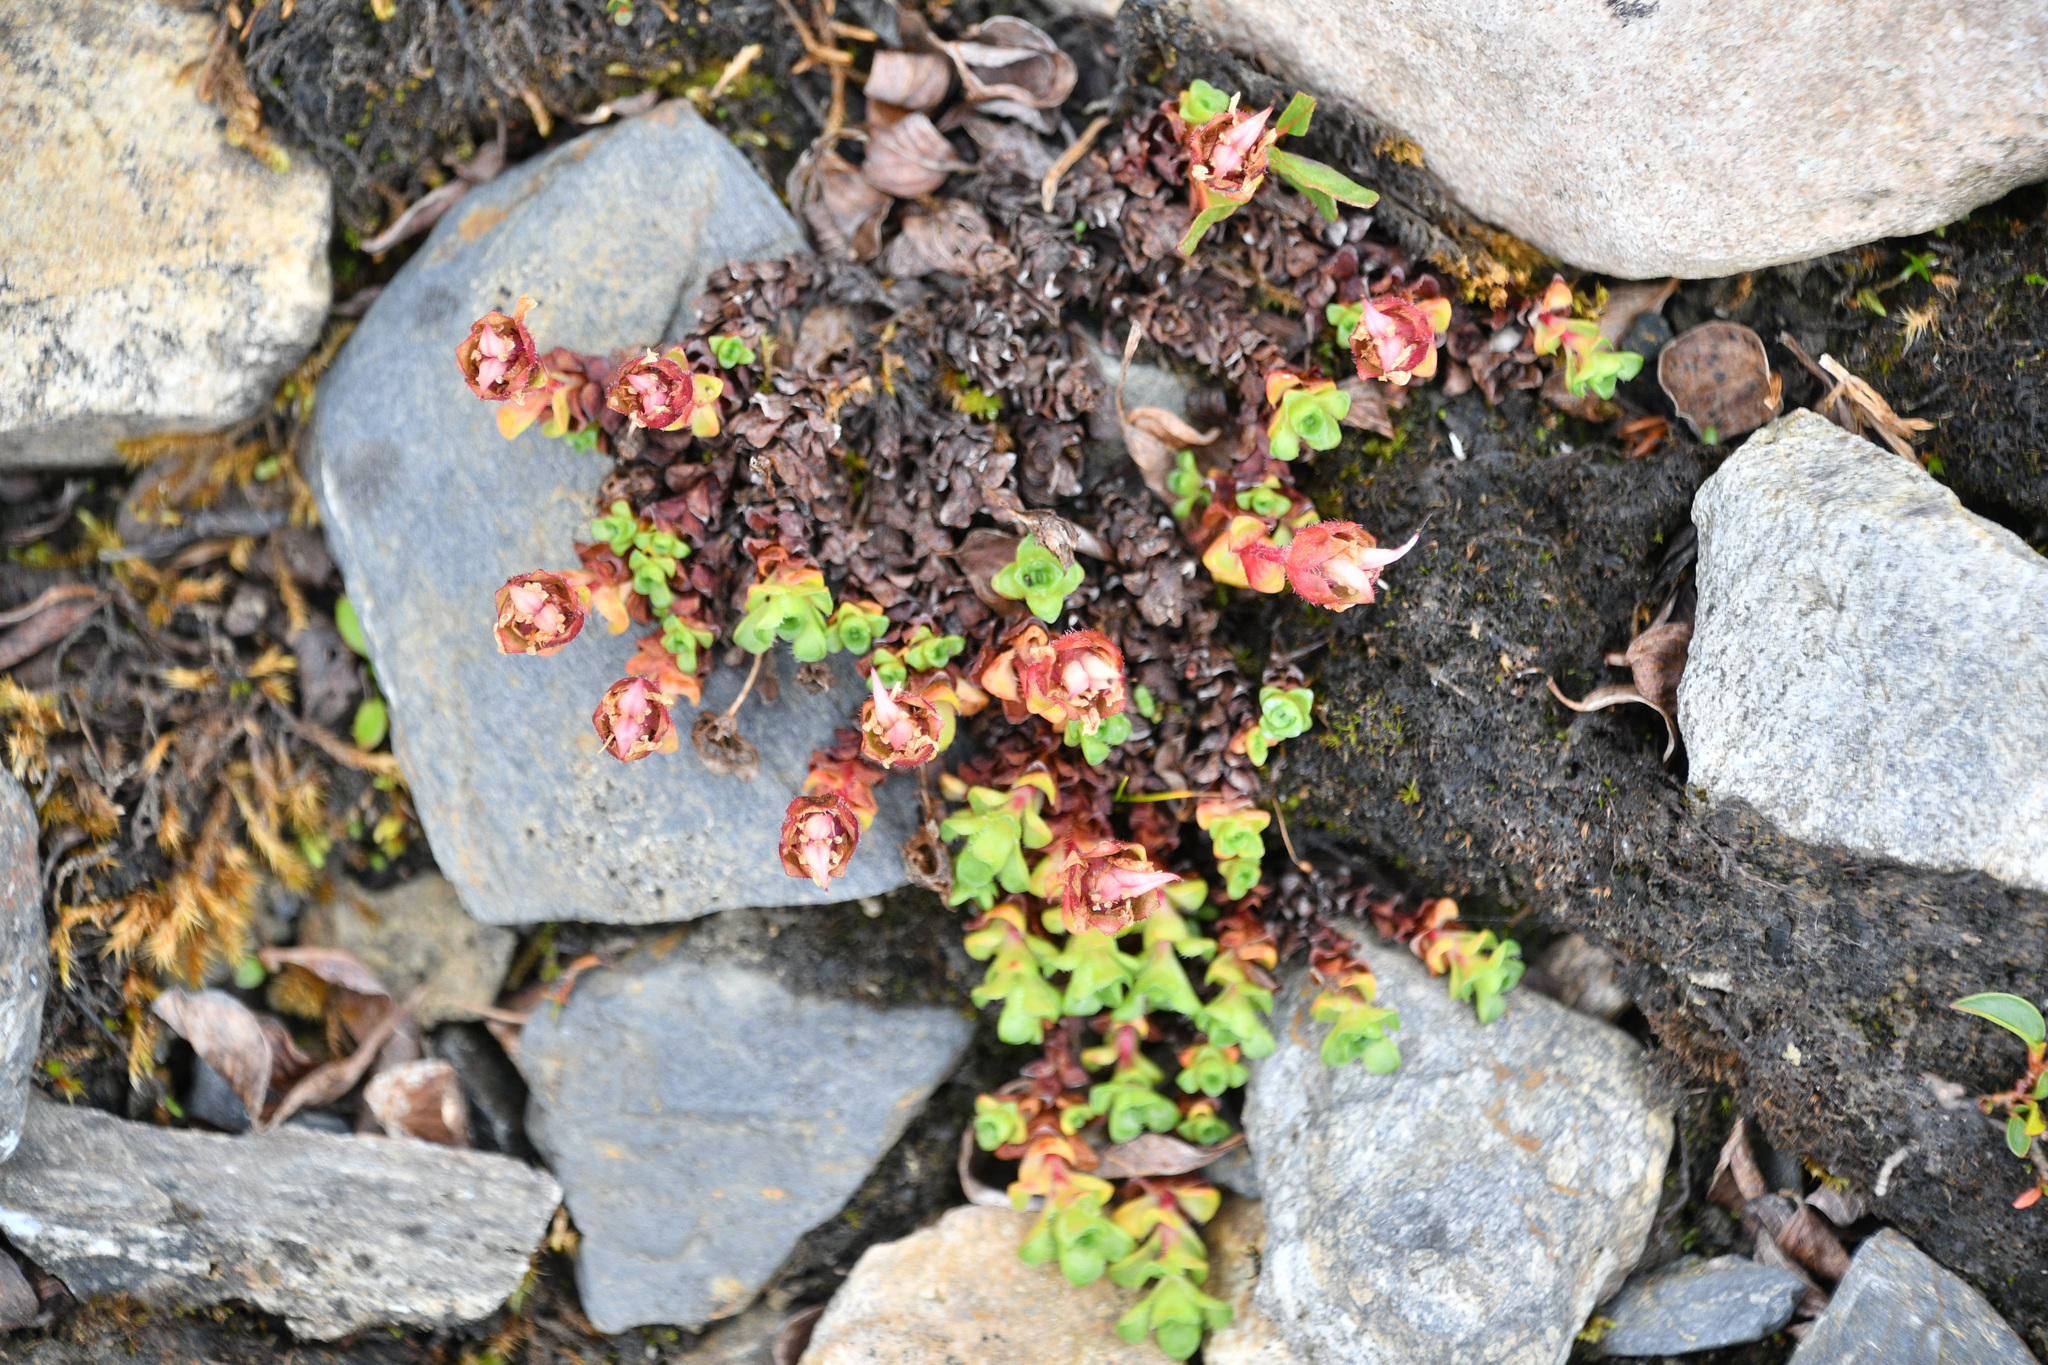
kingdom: Plantae
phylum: Tracheophyta
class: Magnoliopsida
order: Saxifragales
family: Saxifragaceae
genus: Saxifraga
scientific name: Saxifraga oppositifolia
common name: Purple saxifrage
